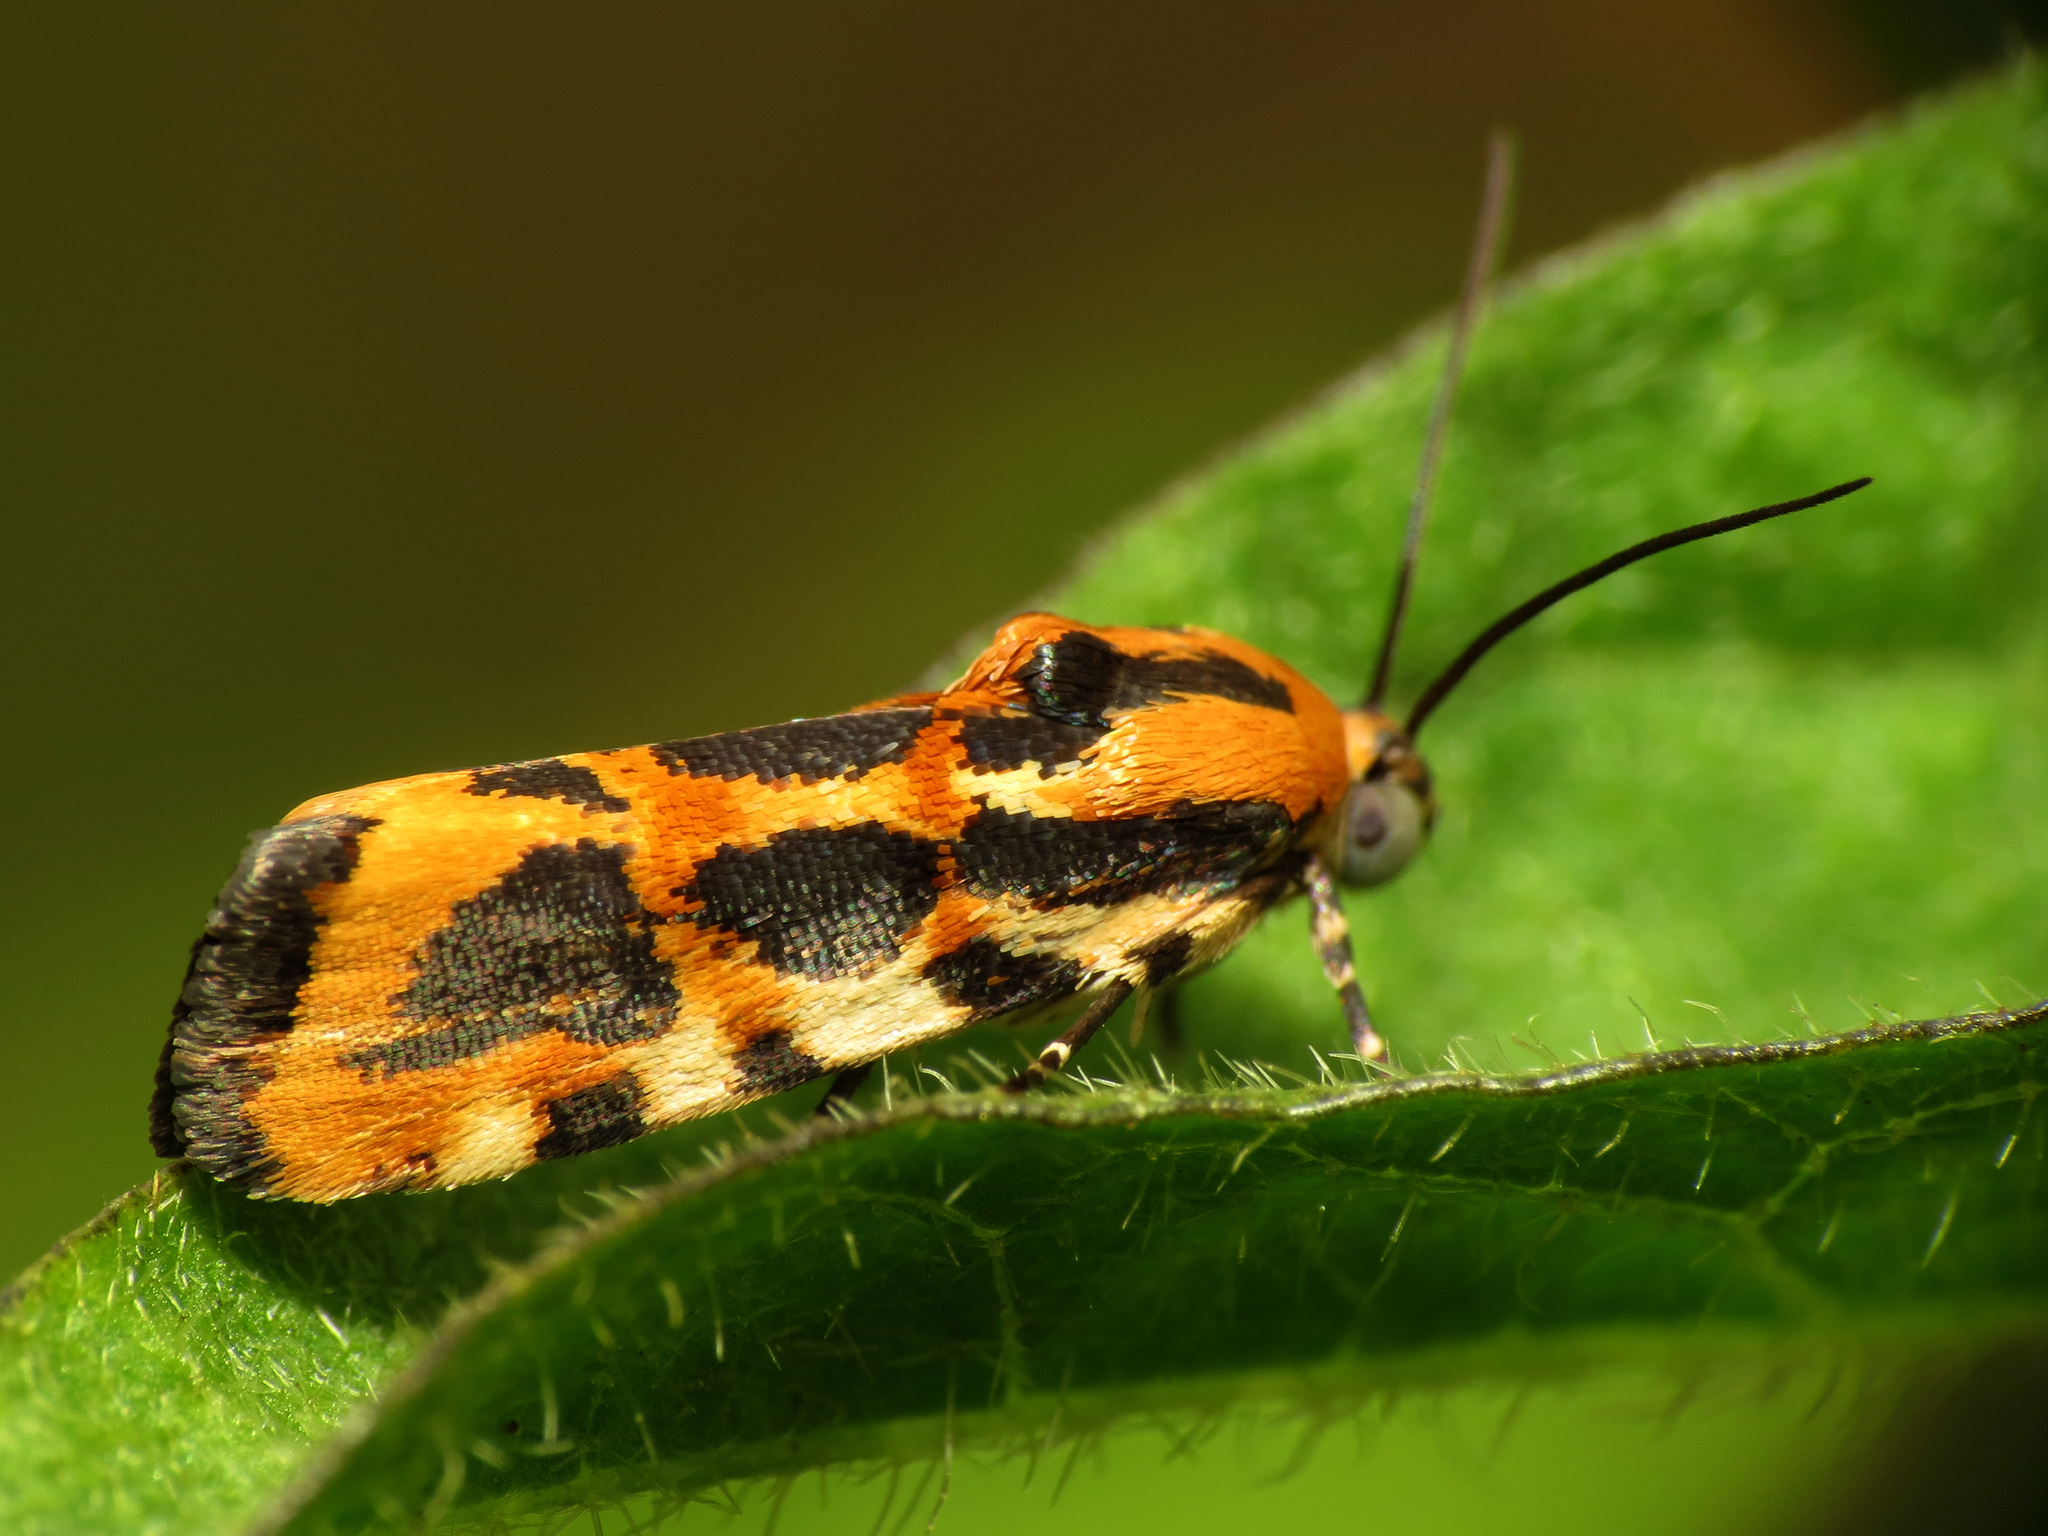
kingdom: Animalia
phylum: Arthropoda
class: Insecta
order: Lepidoptera
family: Noctuidae
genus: Acontia
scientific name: Acontia leo
